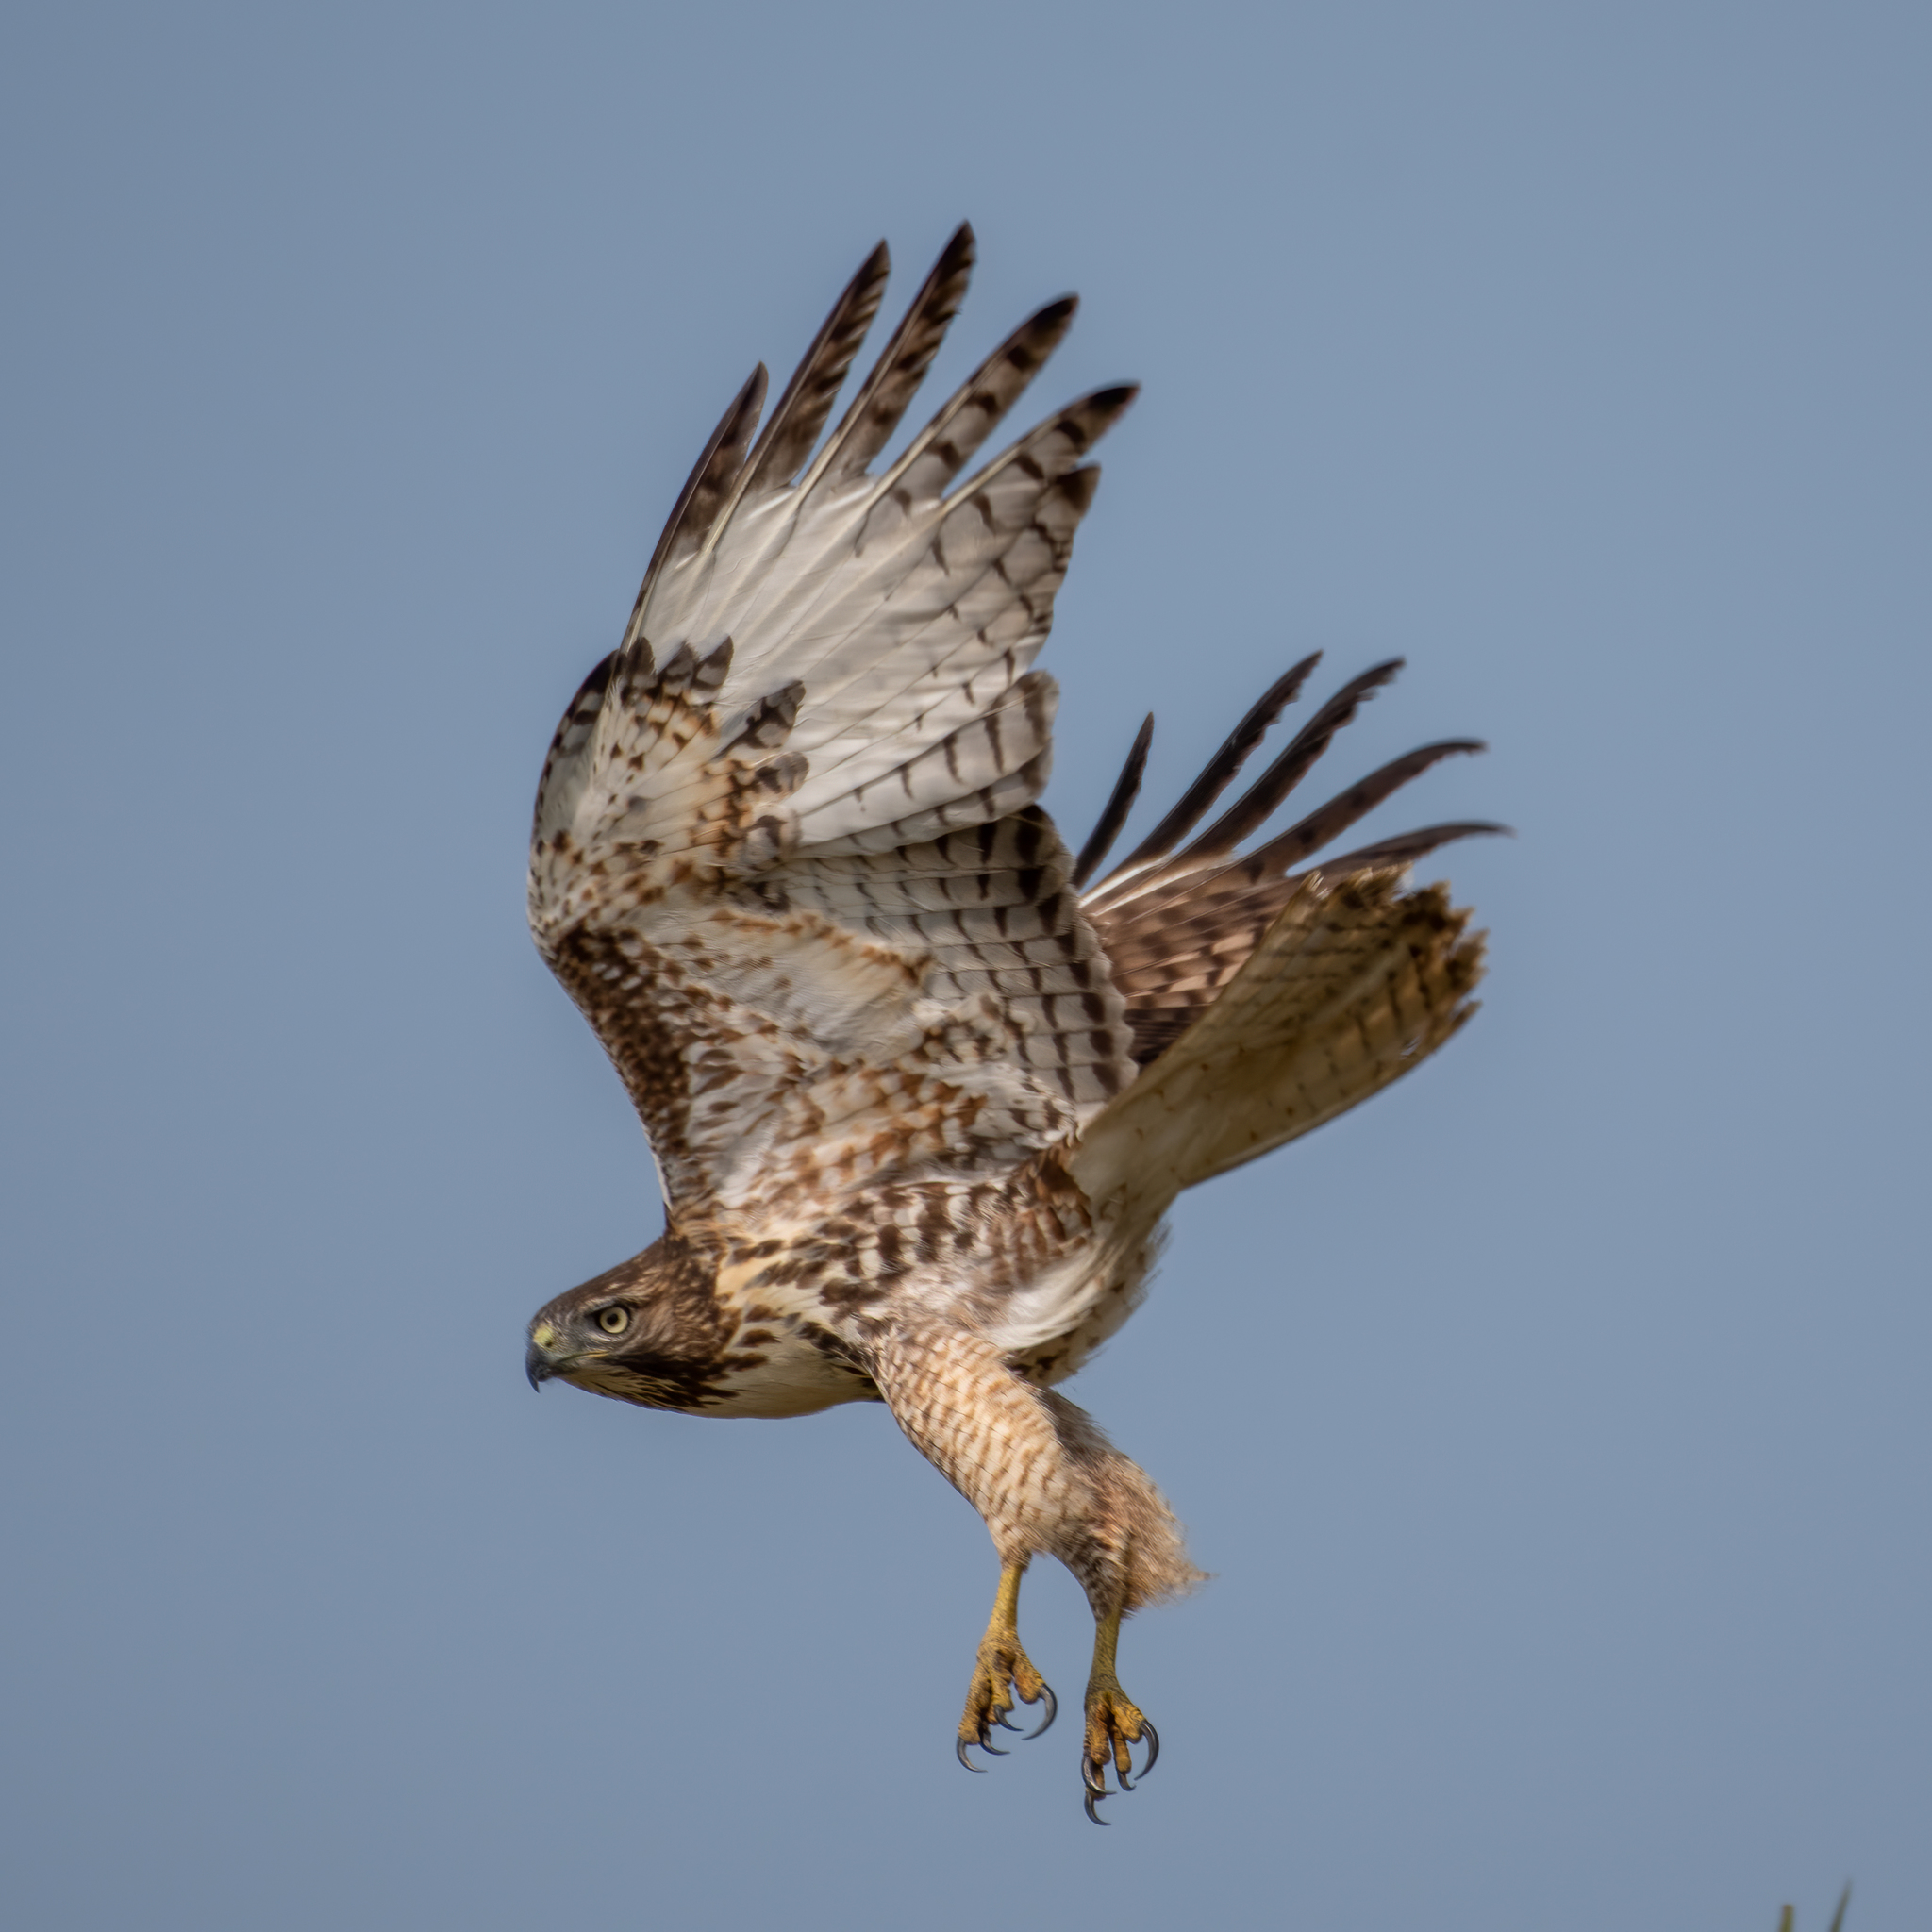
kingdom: Animalia
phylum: Chordata
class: Aves
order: Accipitriformes
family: Accipitridae
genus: Buteo
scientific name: Buteo jamaicensis
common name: Red-tailed hawk
